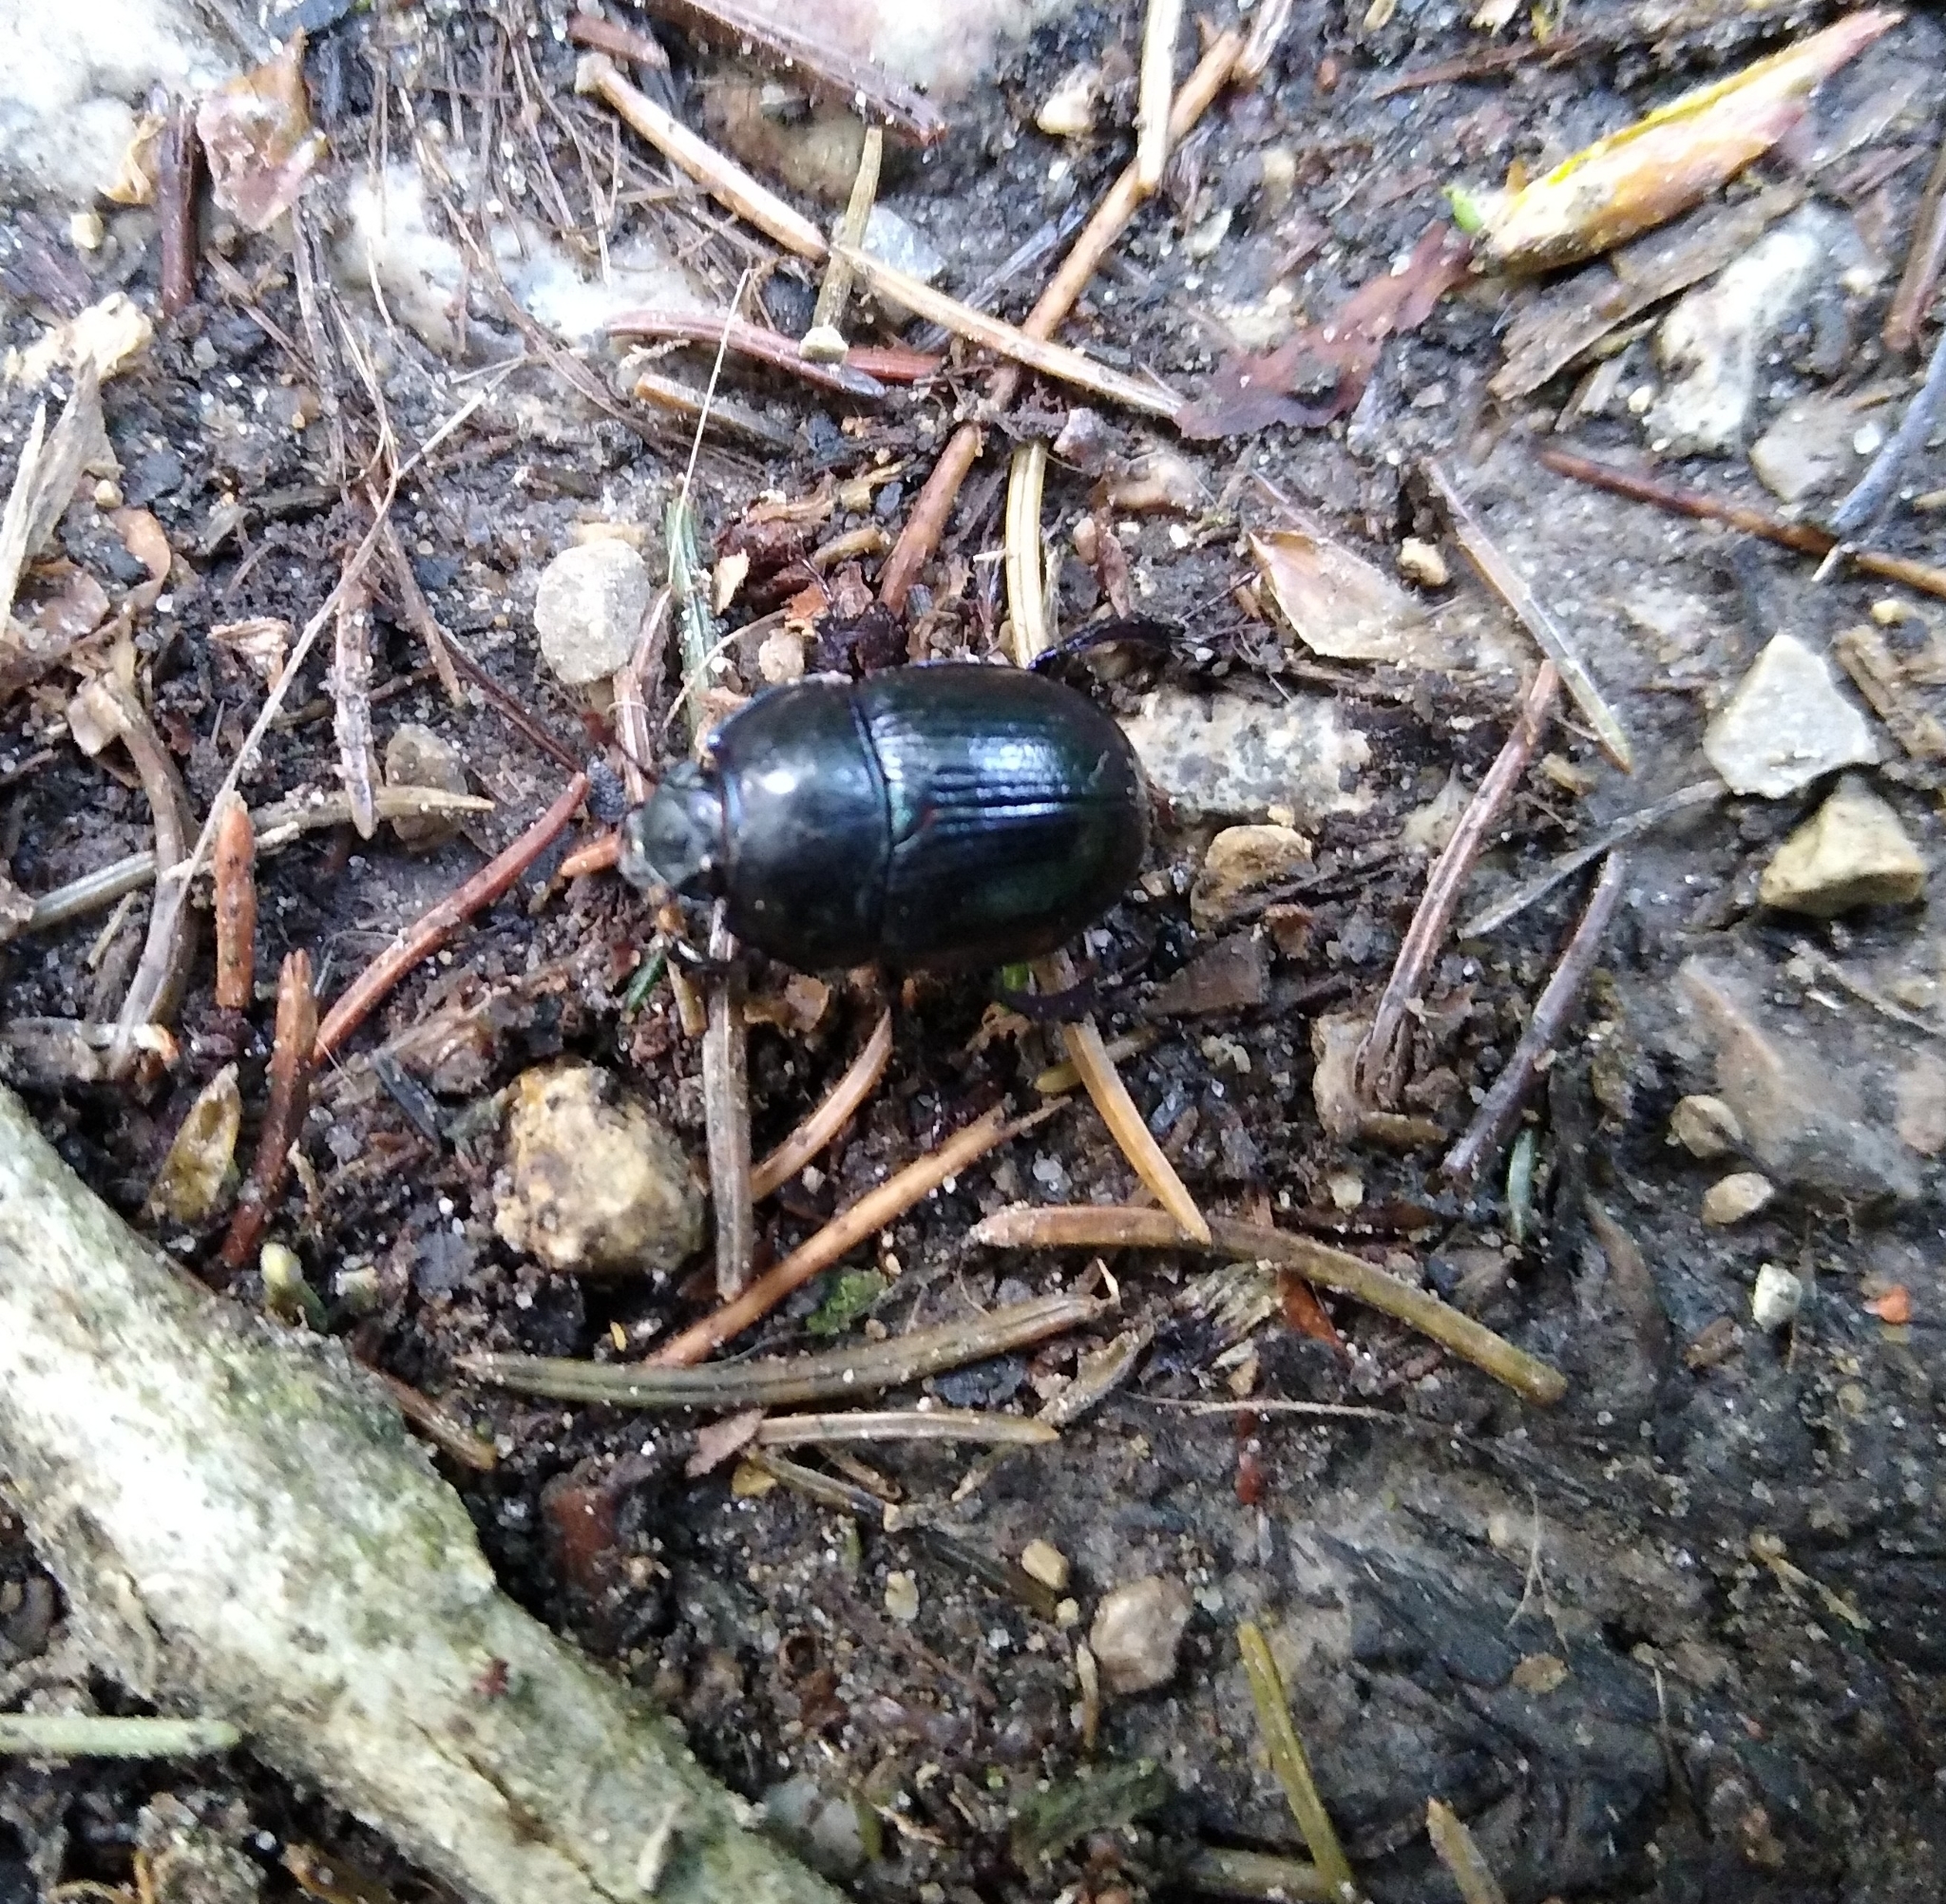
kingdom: Animalia
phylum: Arthropoda
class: Insecta
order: Coleoptera
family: Geotrupidae
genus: Anoplotrupes
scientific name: Anoplotrupes stercorosus
